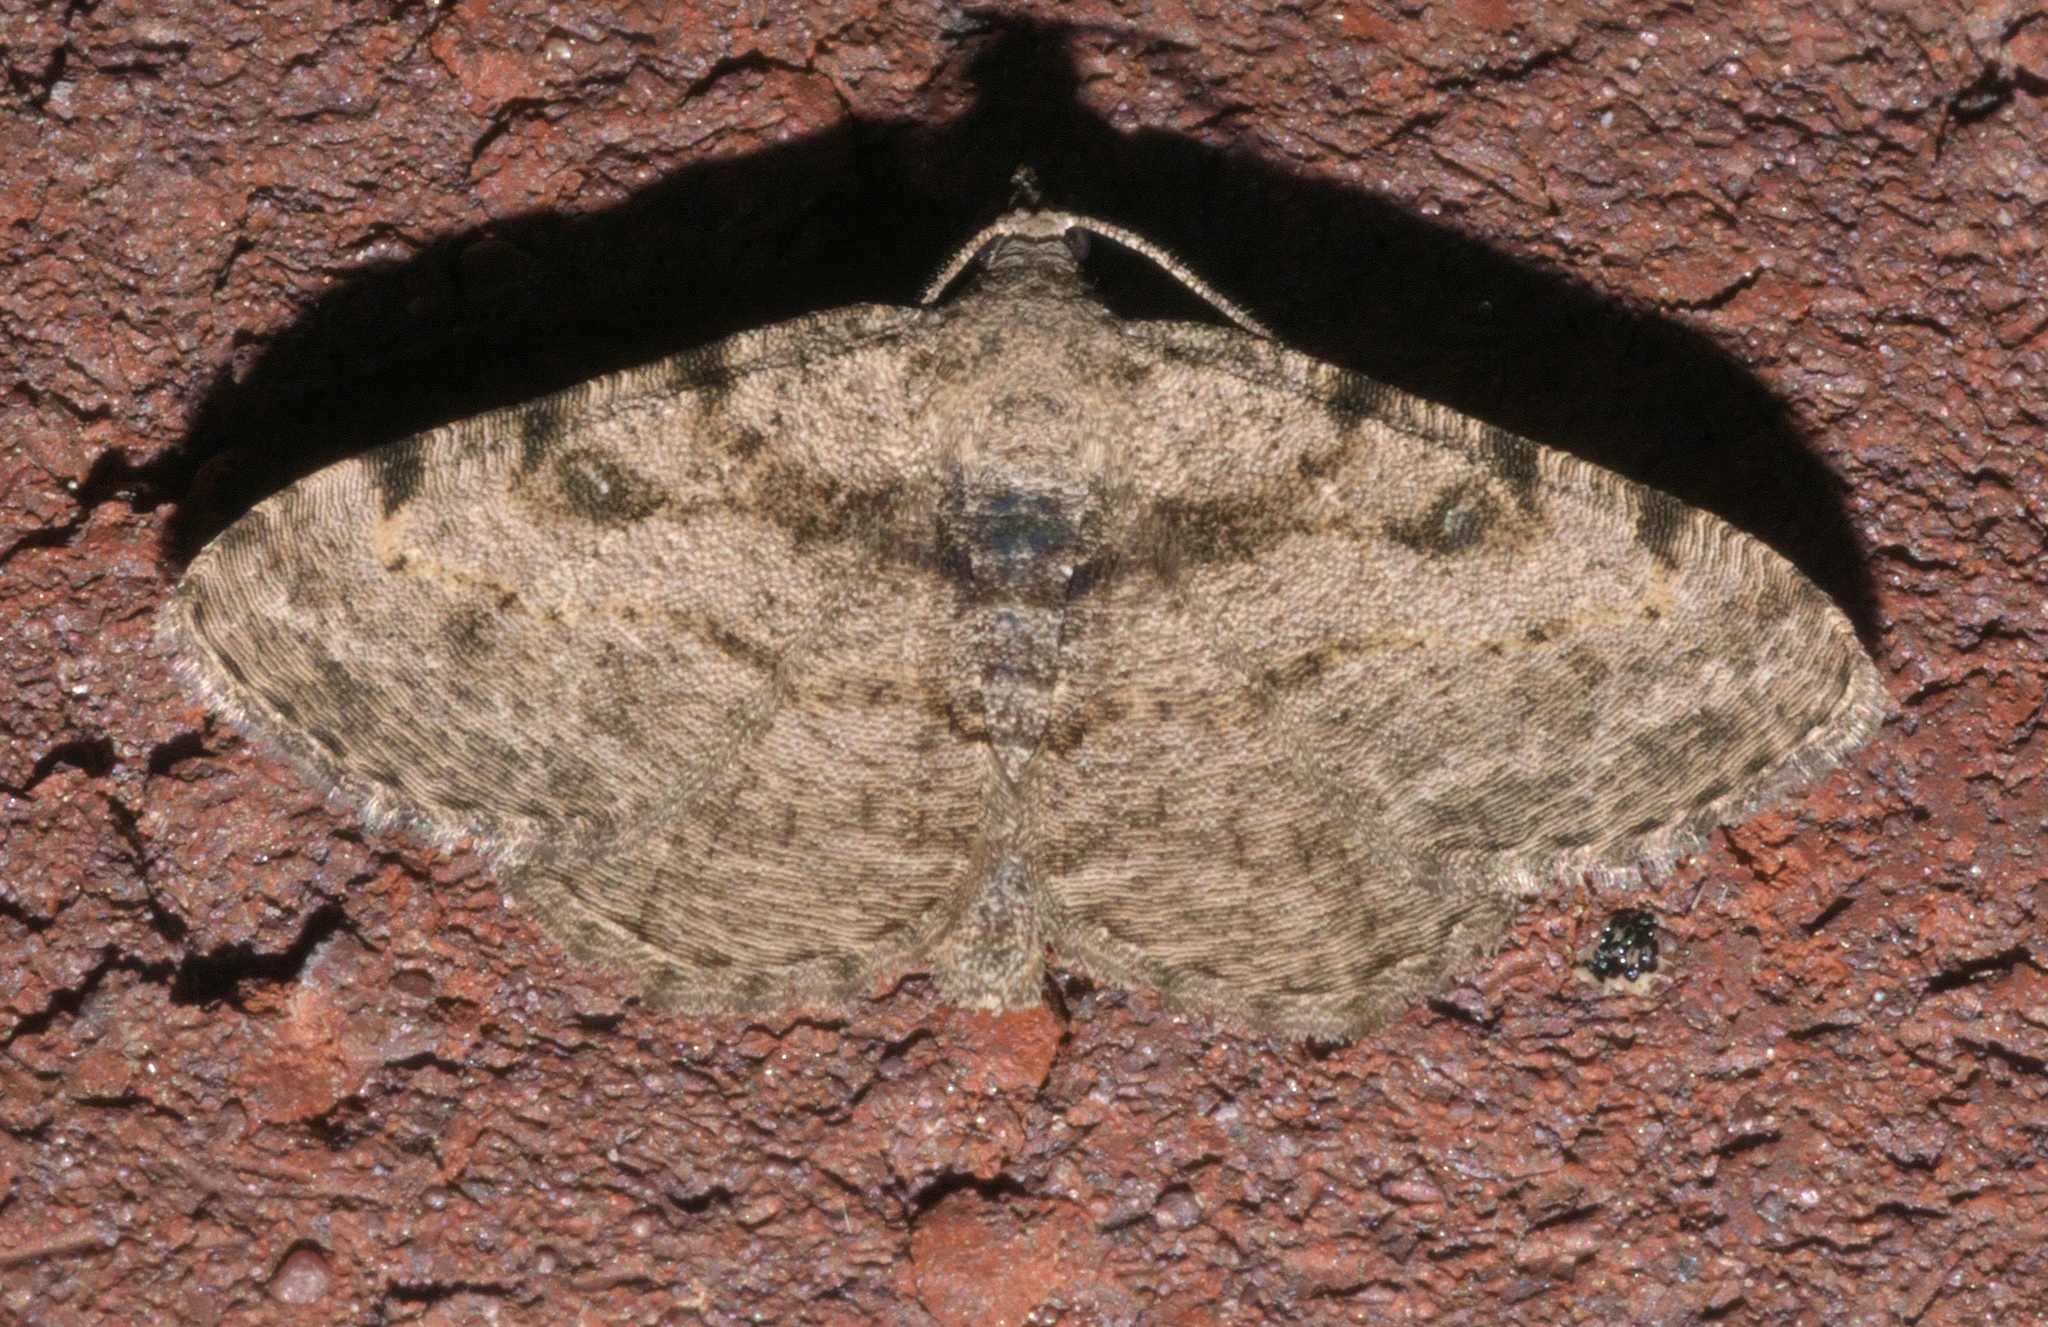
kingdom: Animalia
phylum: Arthropoda
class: Insecta
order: Lepidoptera
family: Geometridae
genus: Digrammia
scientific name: Digrammia gnophosaria
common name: Hollow-spotted angle
